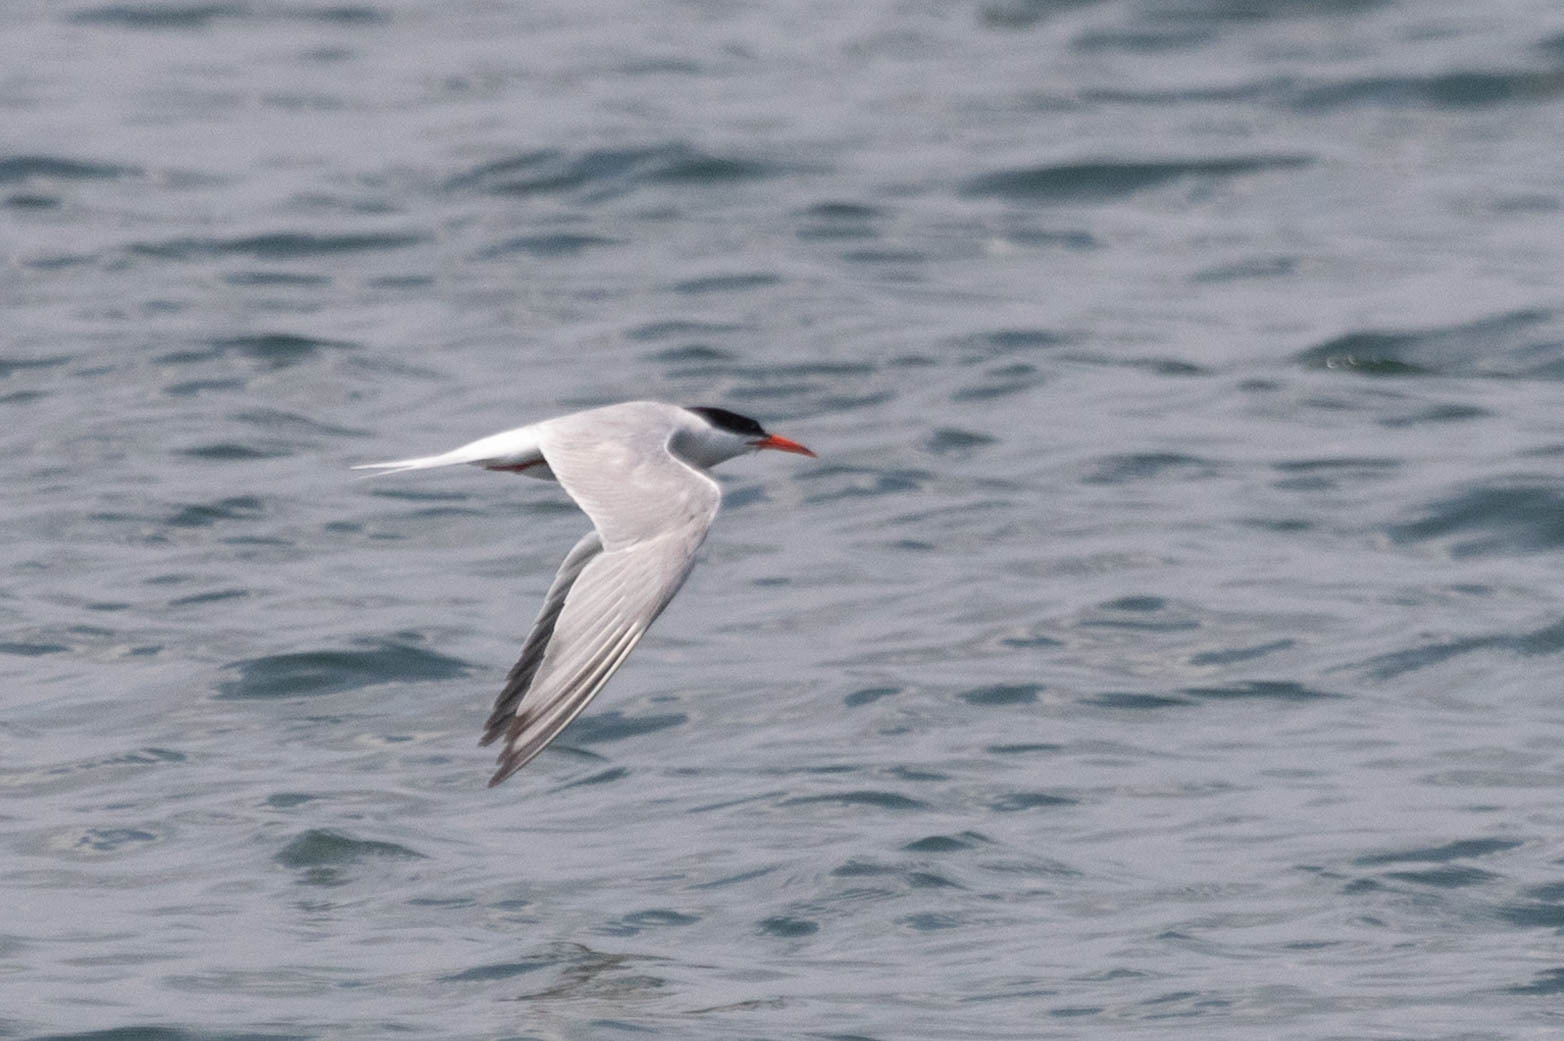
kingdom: Animalia
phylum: Chordata
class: Aves
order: Charadriiformes
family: Laridae
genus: Sterna
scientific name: Sterna hirundo
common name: Common tern
